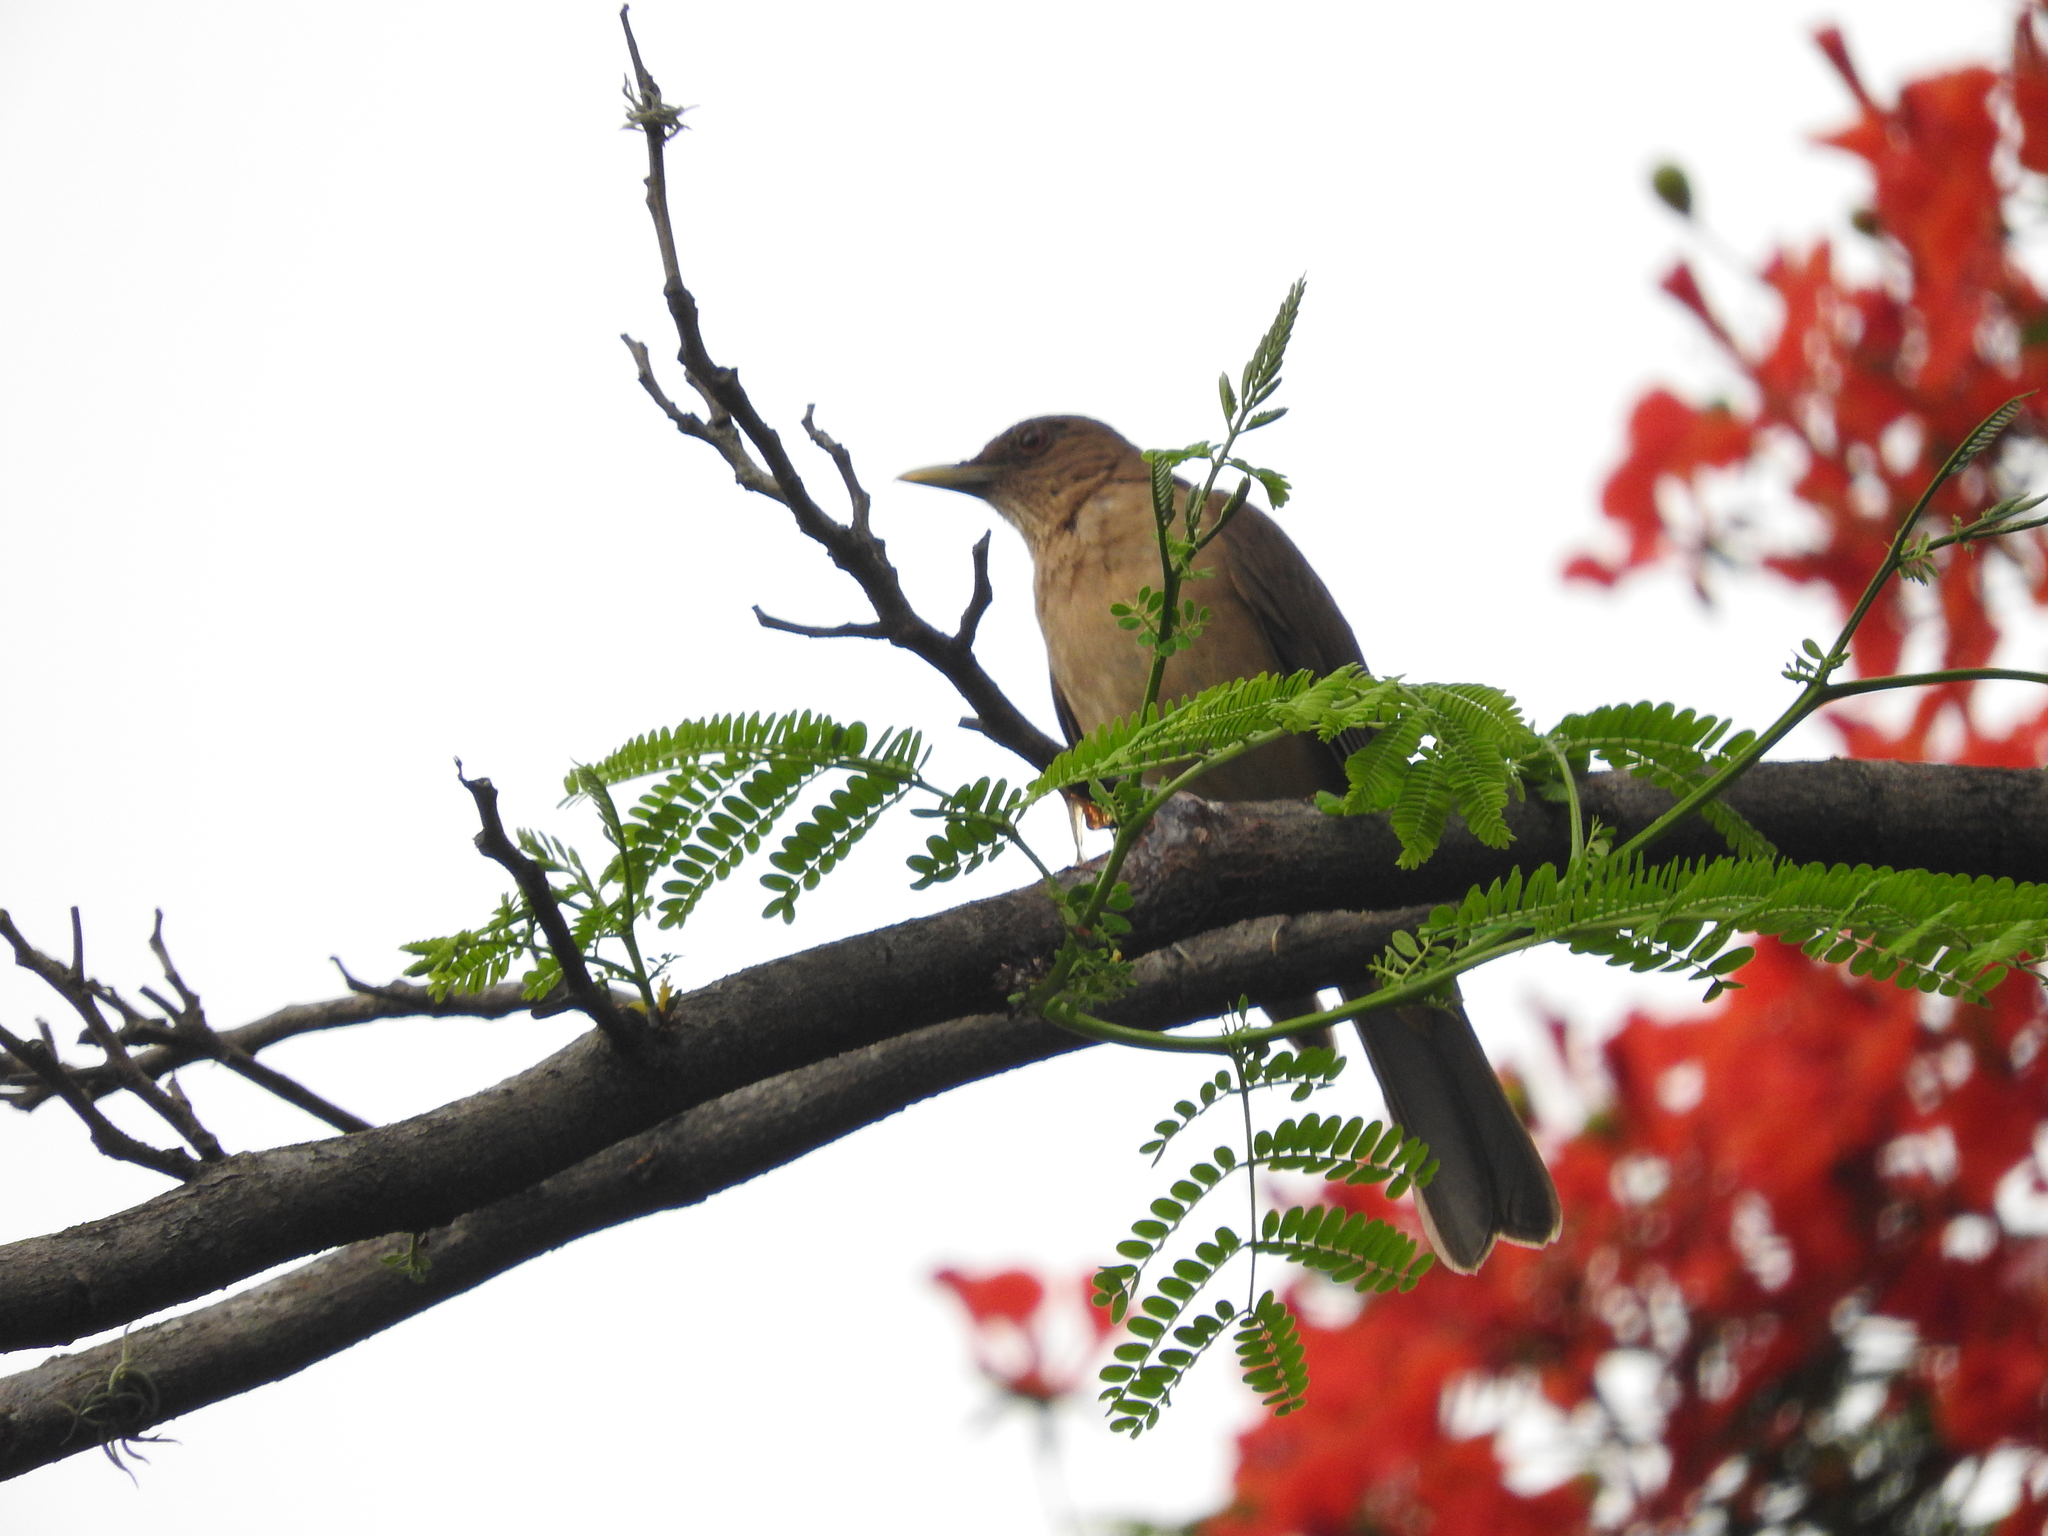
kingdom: Animalia
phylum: Chordata
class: Aves
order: Passeriformes
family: Turdidae
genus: Turdus
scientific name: Turdus grayi
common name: Clay-colored thrush
